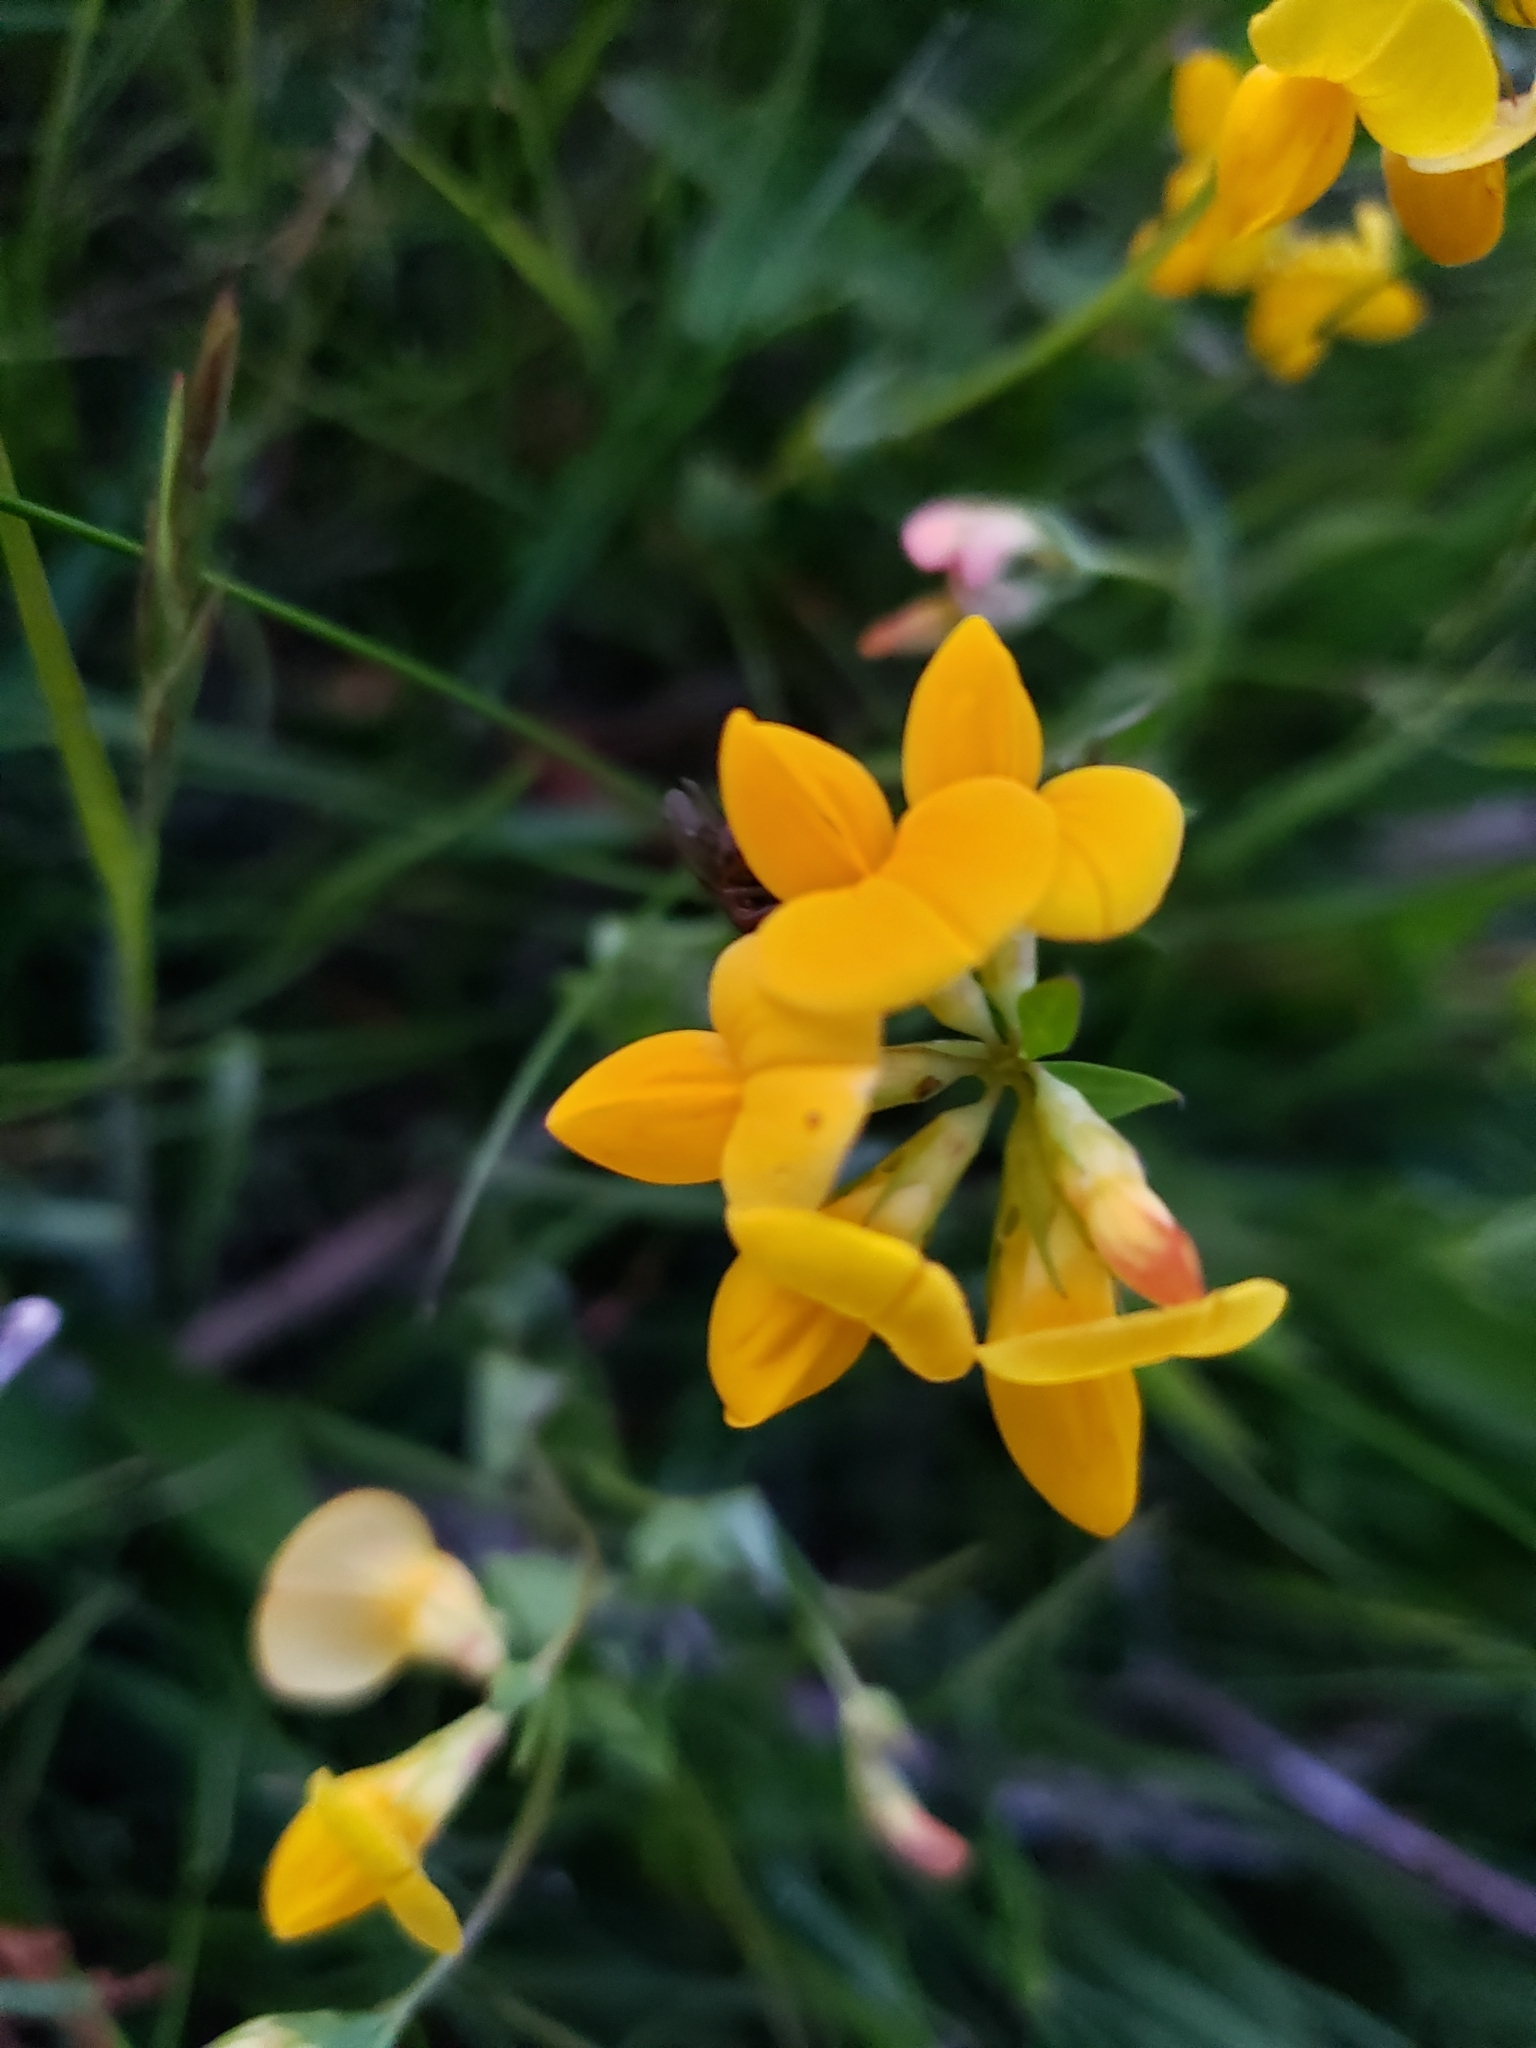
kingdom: Plantae
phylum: Tracheophyta
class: Magnoliopsida
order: Fabales
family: Fabaceae
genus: Lotus
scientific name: Lotus corniculatus
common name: Common bird's-foot-trefoil
